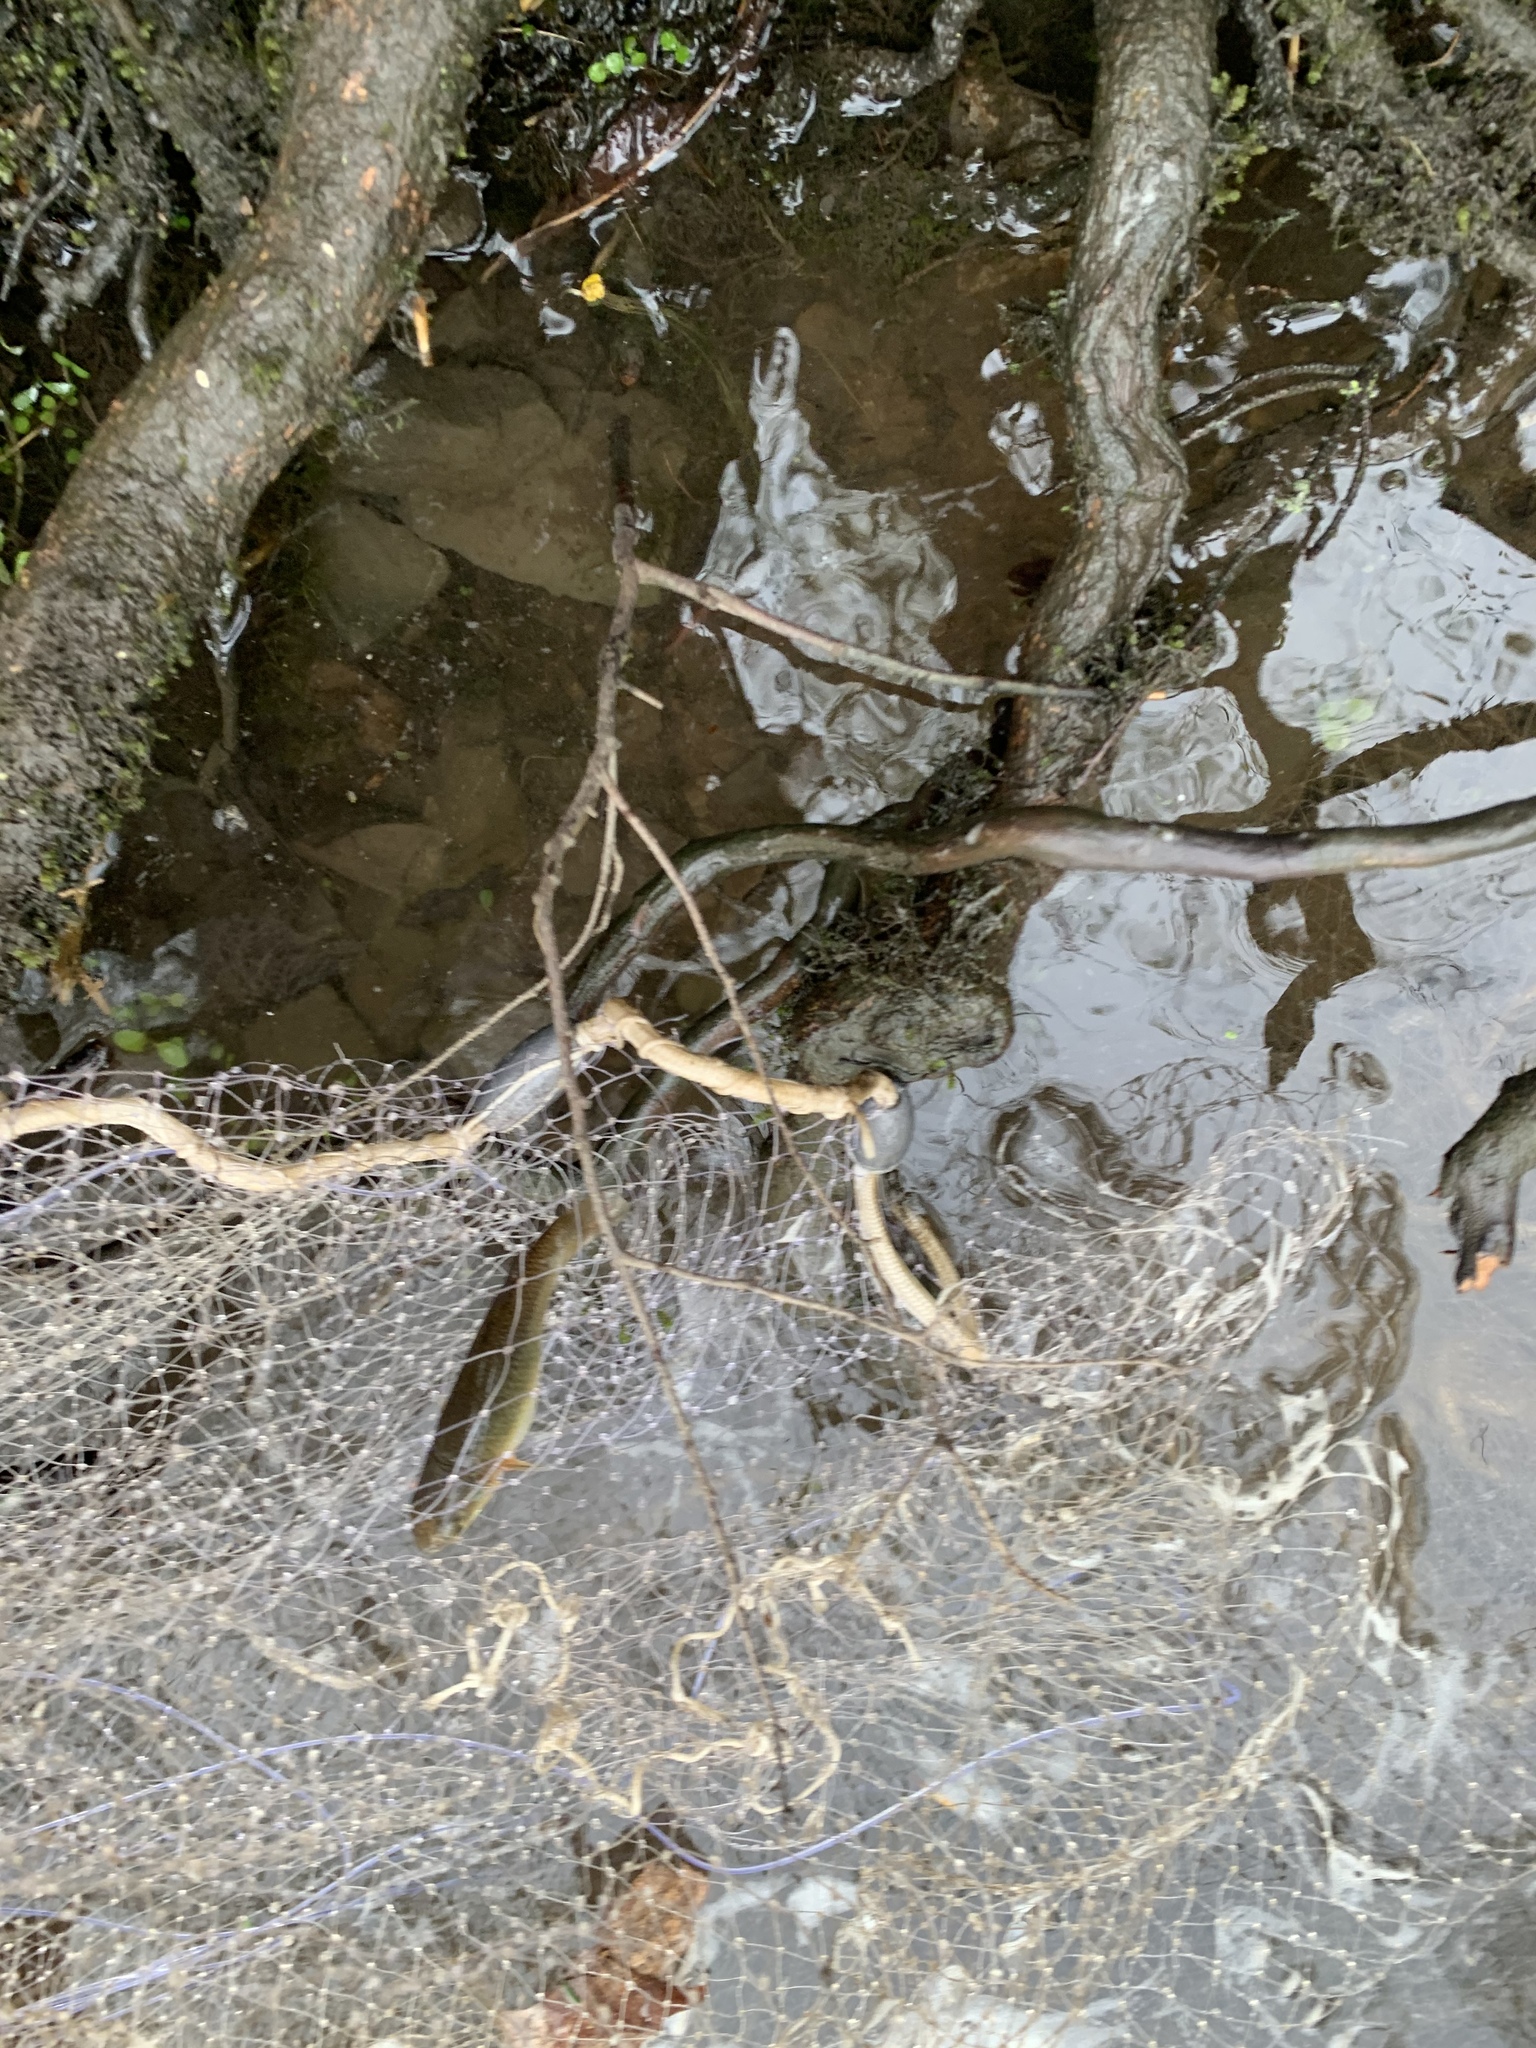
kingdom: Animalia
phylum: Chordata
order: Cyprinodontiformes
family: Fundulidae
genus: Fundulus
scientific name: Fundulus heteroclitus
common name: Mummichog
